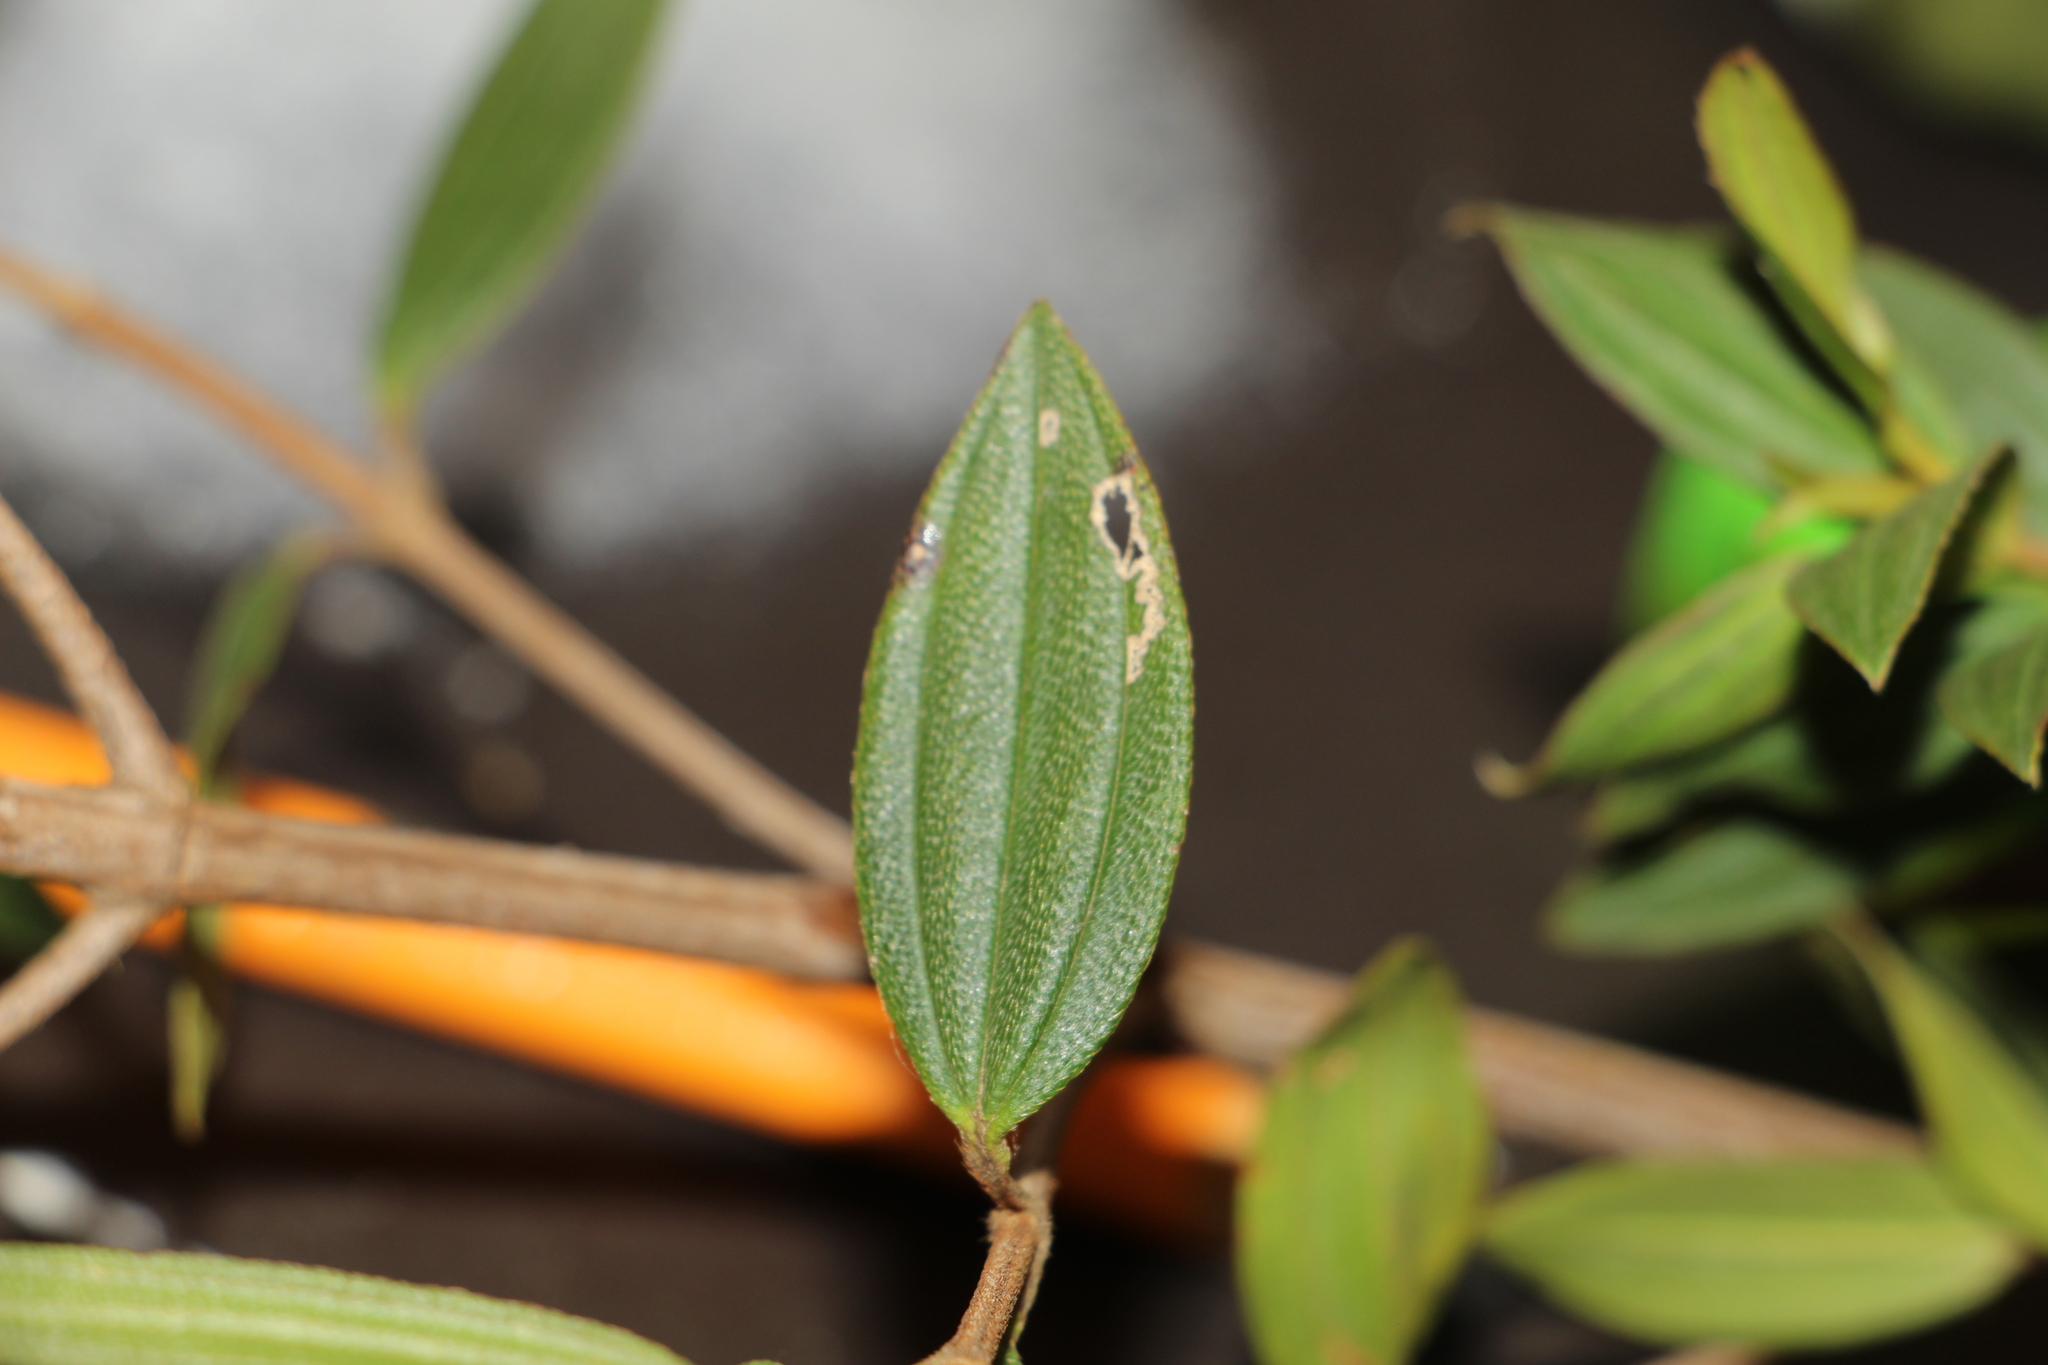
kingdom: Plantae
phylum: Tracheophyta
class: Magnoliopsida
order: Myrtales
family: Melastomataceae
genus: Pleroma
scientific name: Pleroma martiale
